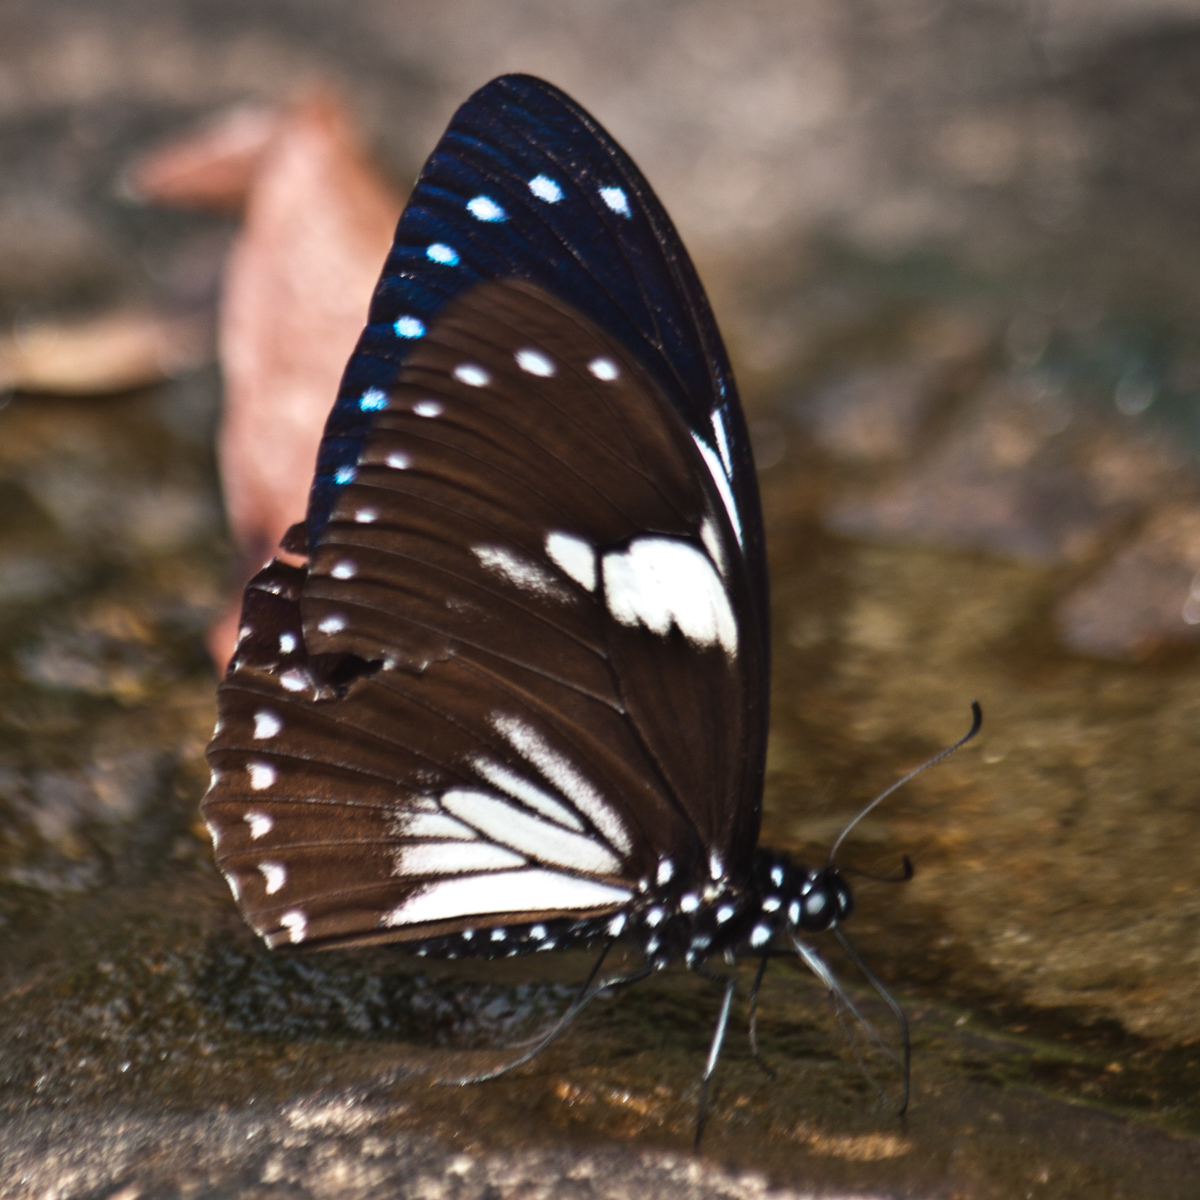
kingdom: Animalia
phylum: Arthropoda
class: Insecta
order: Lepidoptera
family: Papilionidae
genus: Papilio
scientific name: Papilio paradoxa
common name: Great blue mime swallowtail
